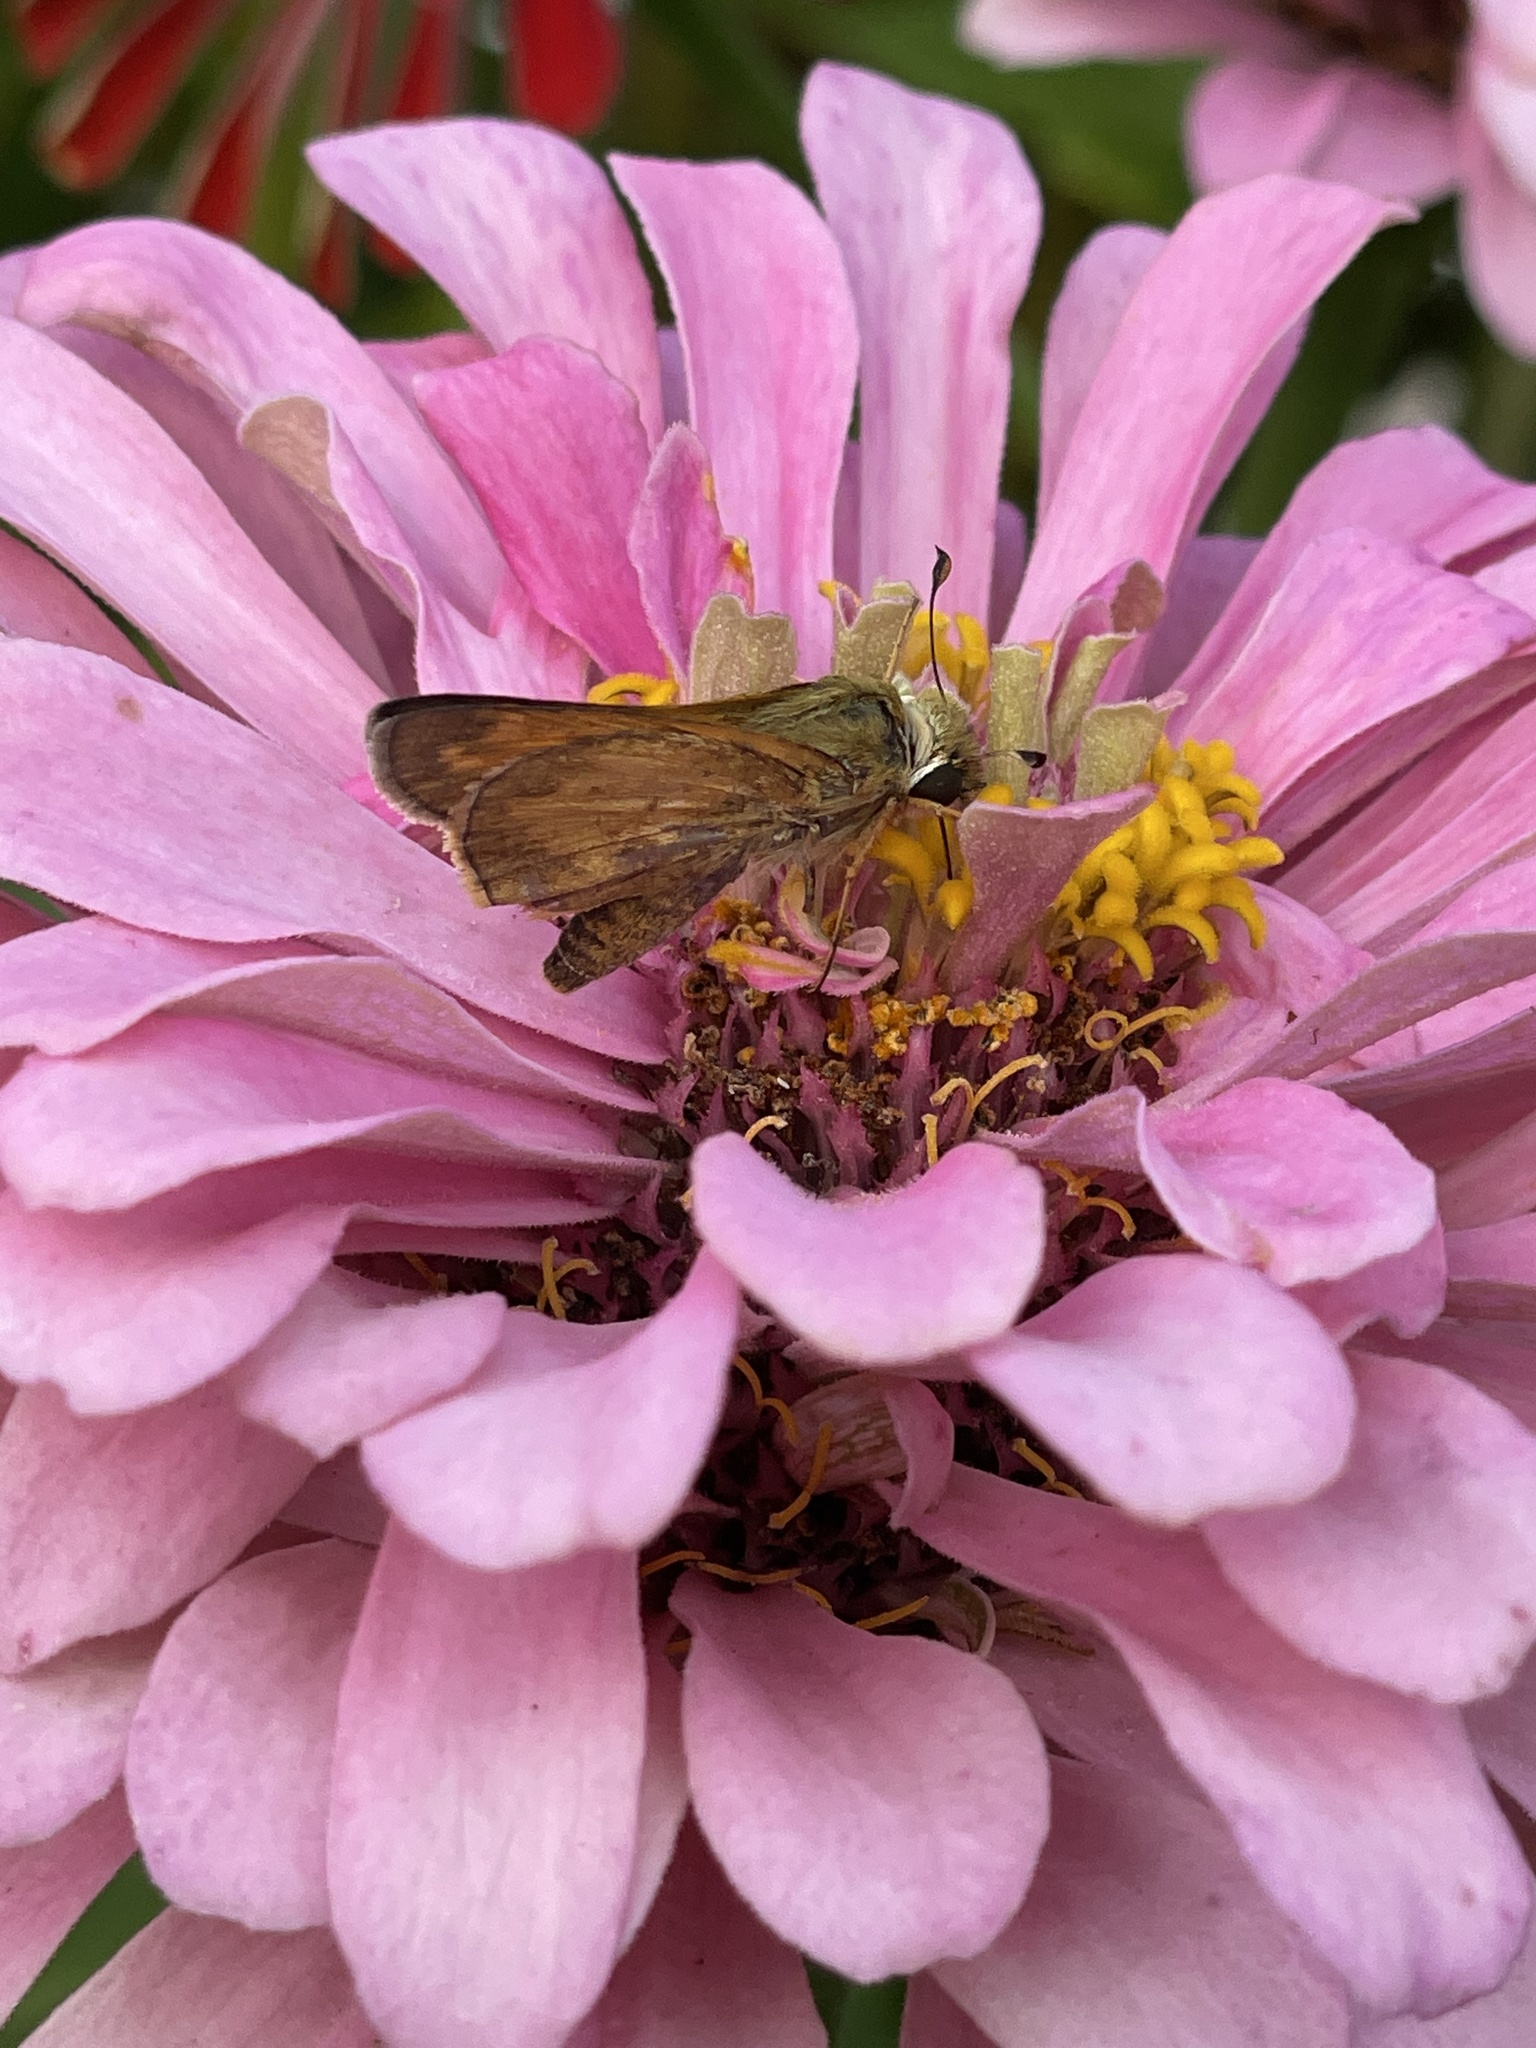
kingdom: Animalia
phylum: Arthropoda
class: Insecta
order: Lepidoptera
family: Hesperiidae
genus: Atalopedes
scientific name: Atalopedes
